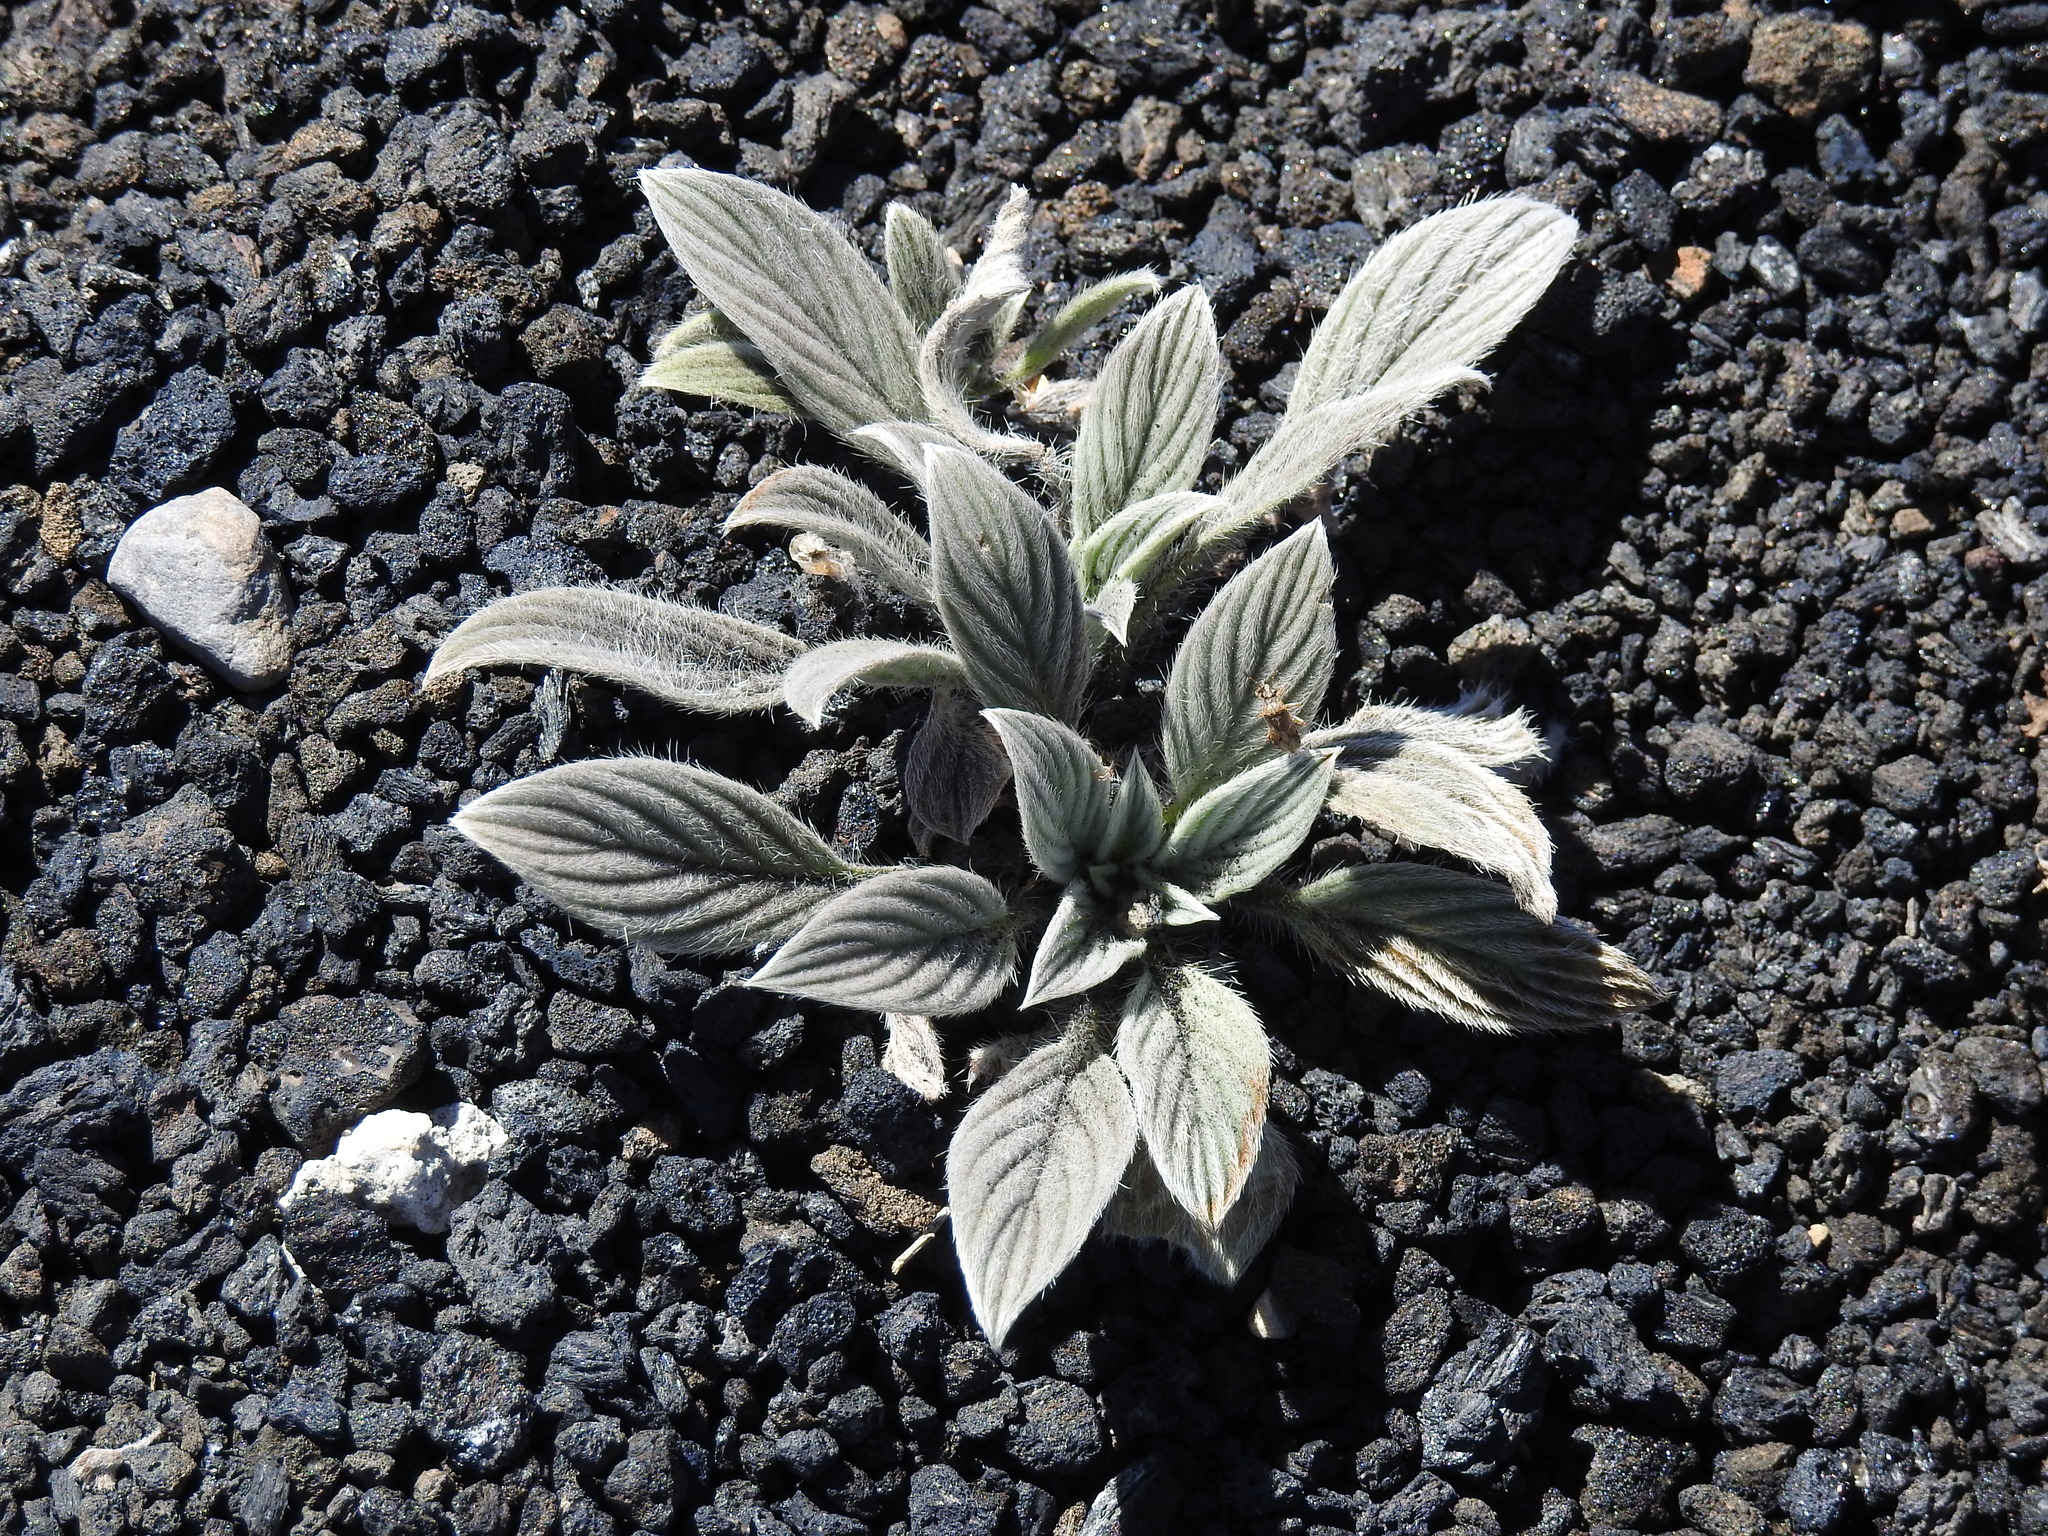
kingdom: Plantae
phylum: Tracheophyta
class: Magnoliopsida
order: Boraginales
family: Hydrophyllaceae
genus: Phacelia
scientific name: Phacelia hastata
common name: Silver-leaved phacelia
